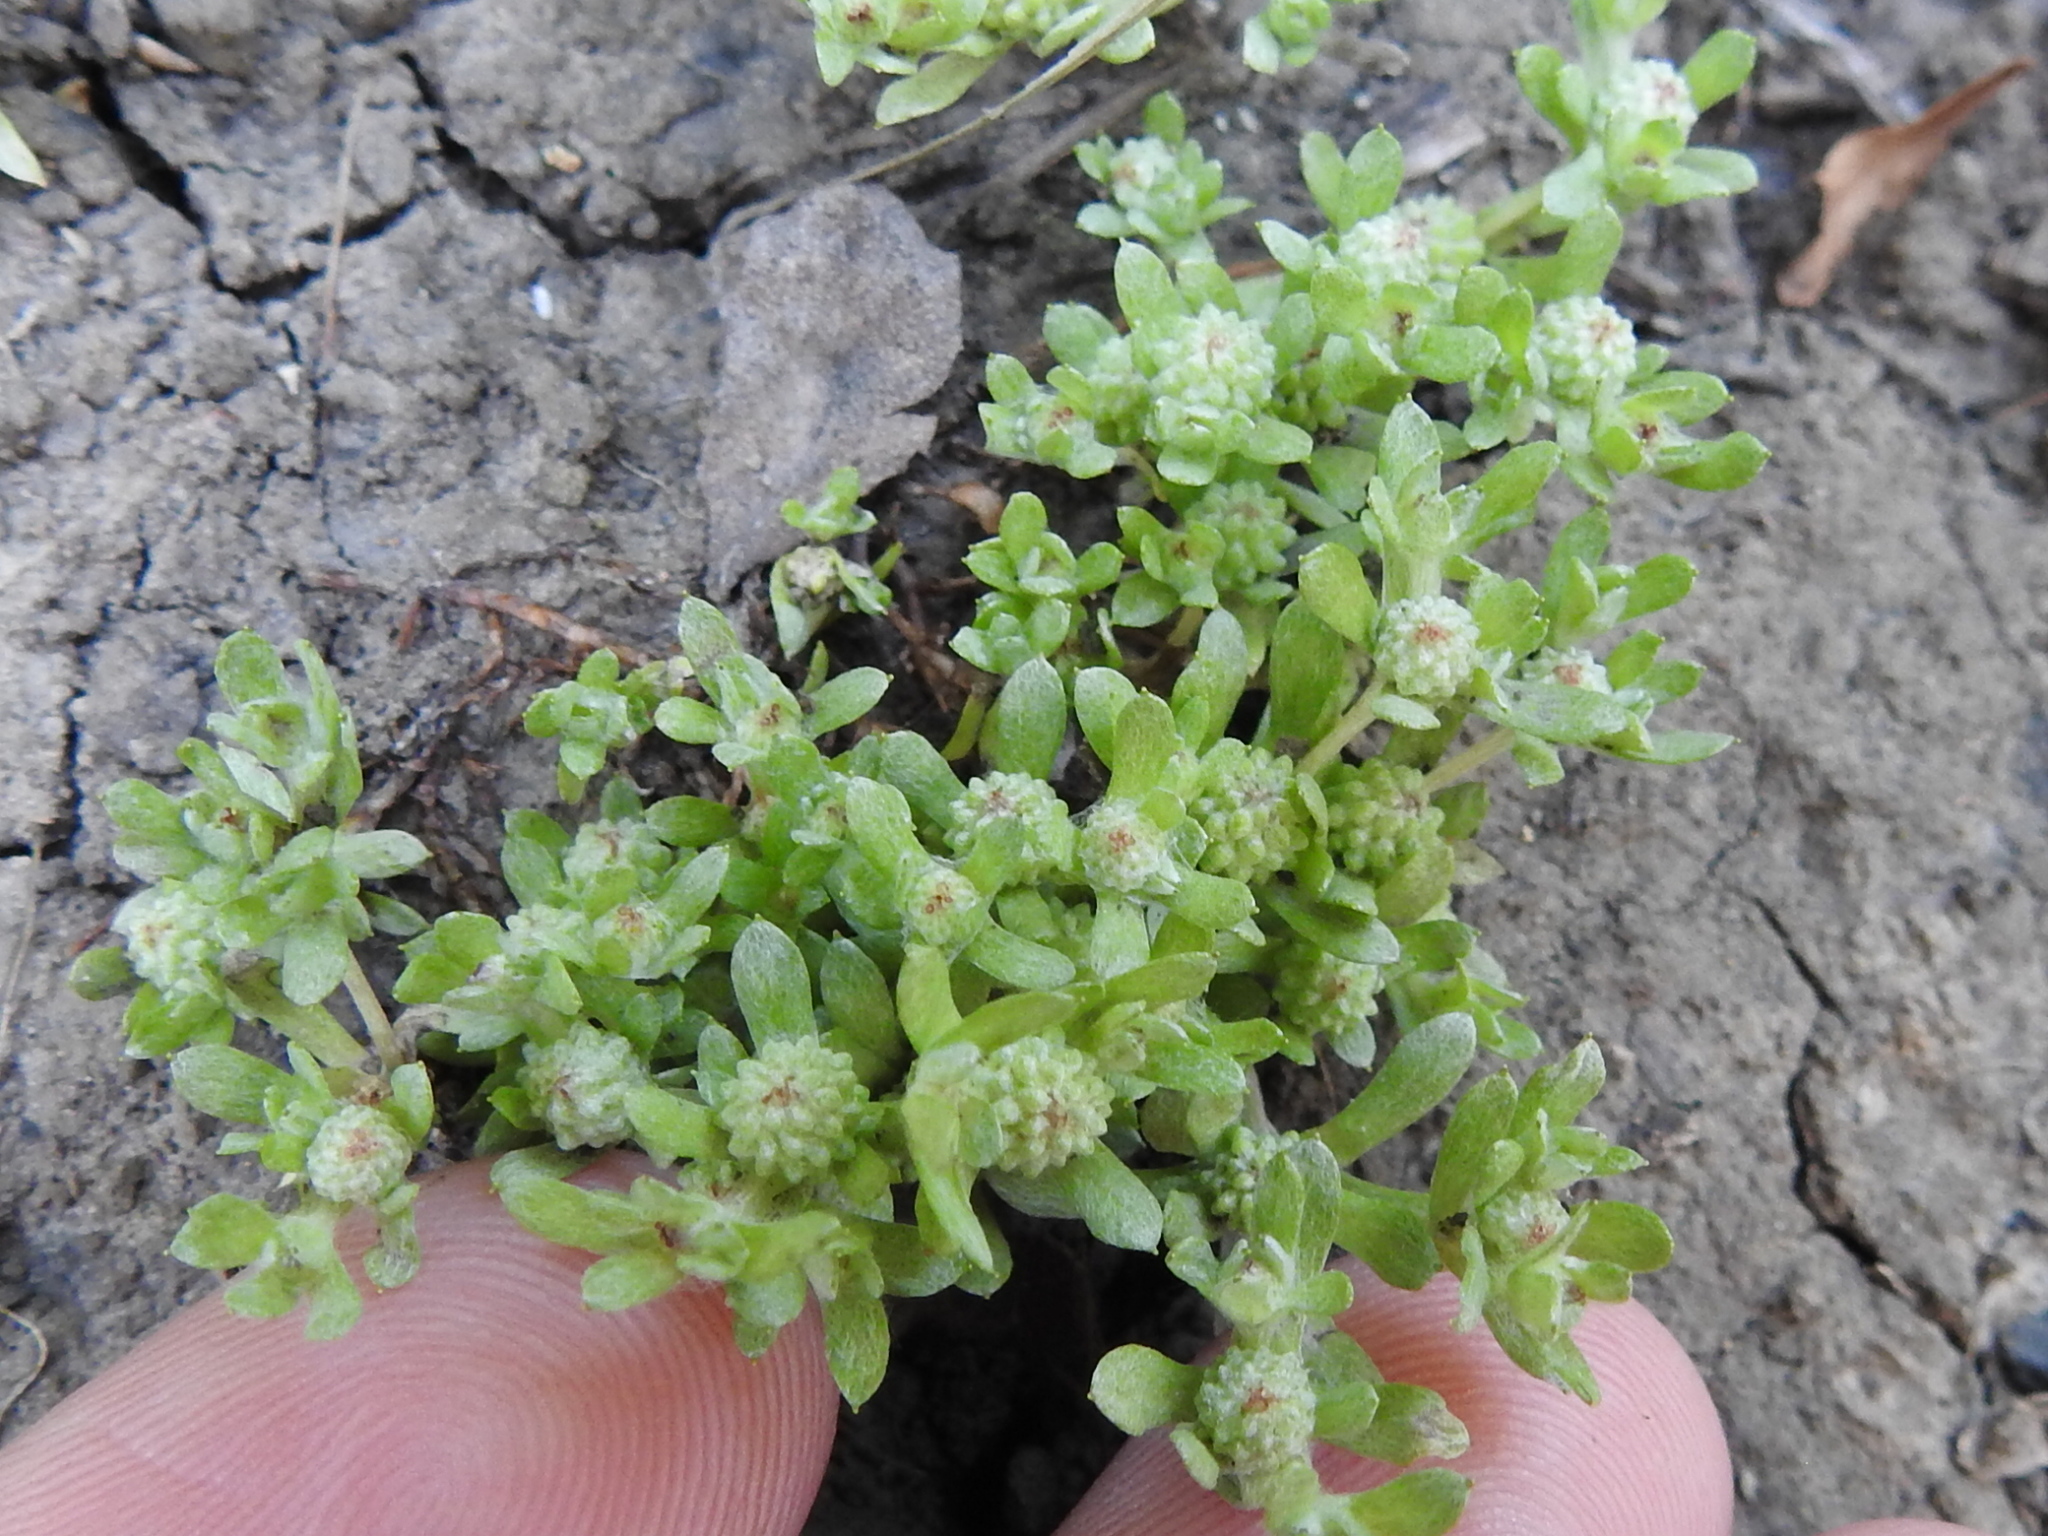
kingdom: Plantae
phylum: Tracheophyta
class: Magnoliopsida
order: Asterales
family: Asteraceae
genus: Psilocarphus
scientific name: Psilocarphus tenellus
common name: Slender woolly-marbles
